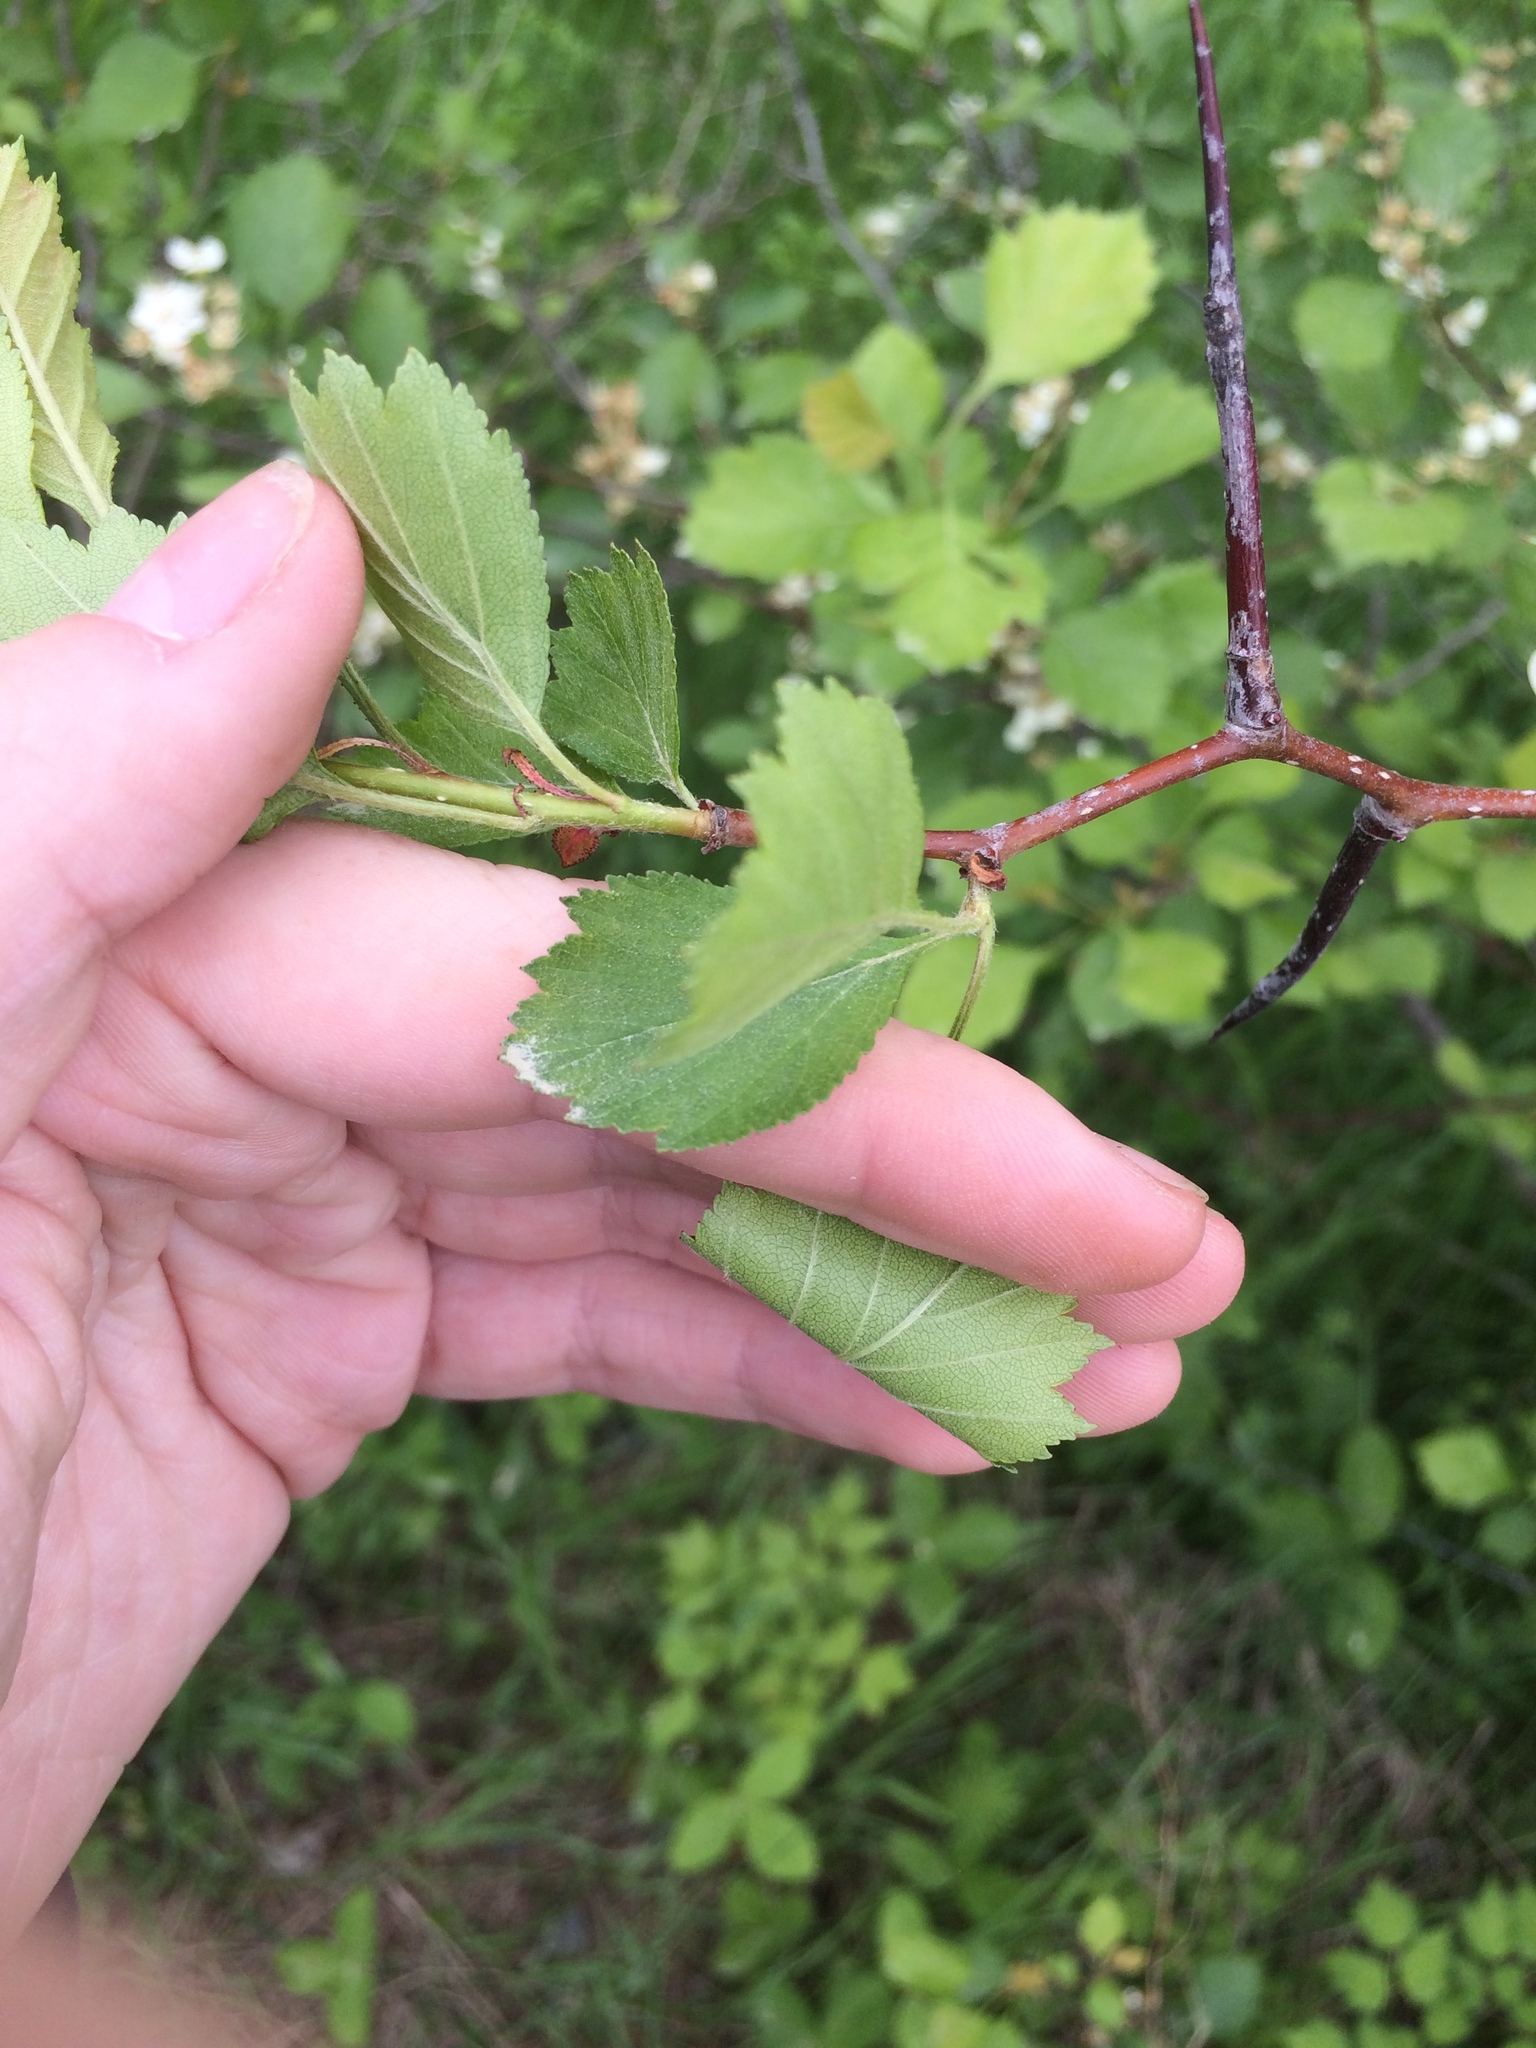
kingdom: Plantae
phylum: Tracheophyta
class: Magnoliopsida
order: Rosales
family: Rosaceae
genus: Crataegus
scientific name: Crataegus chrysocarpa
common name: Fire-berry hawthorn
